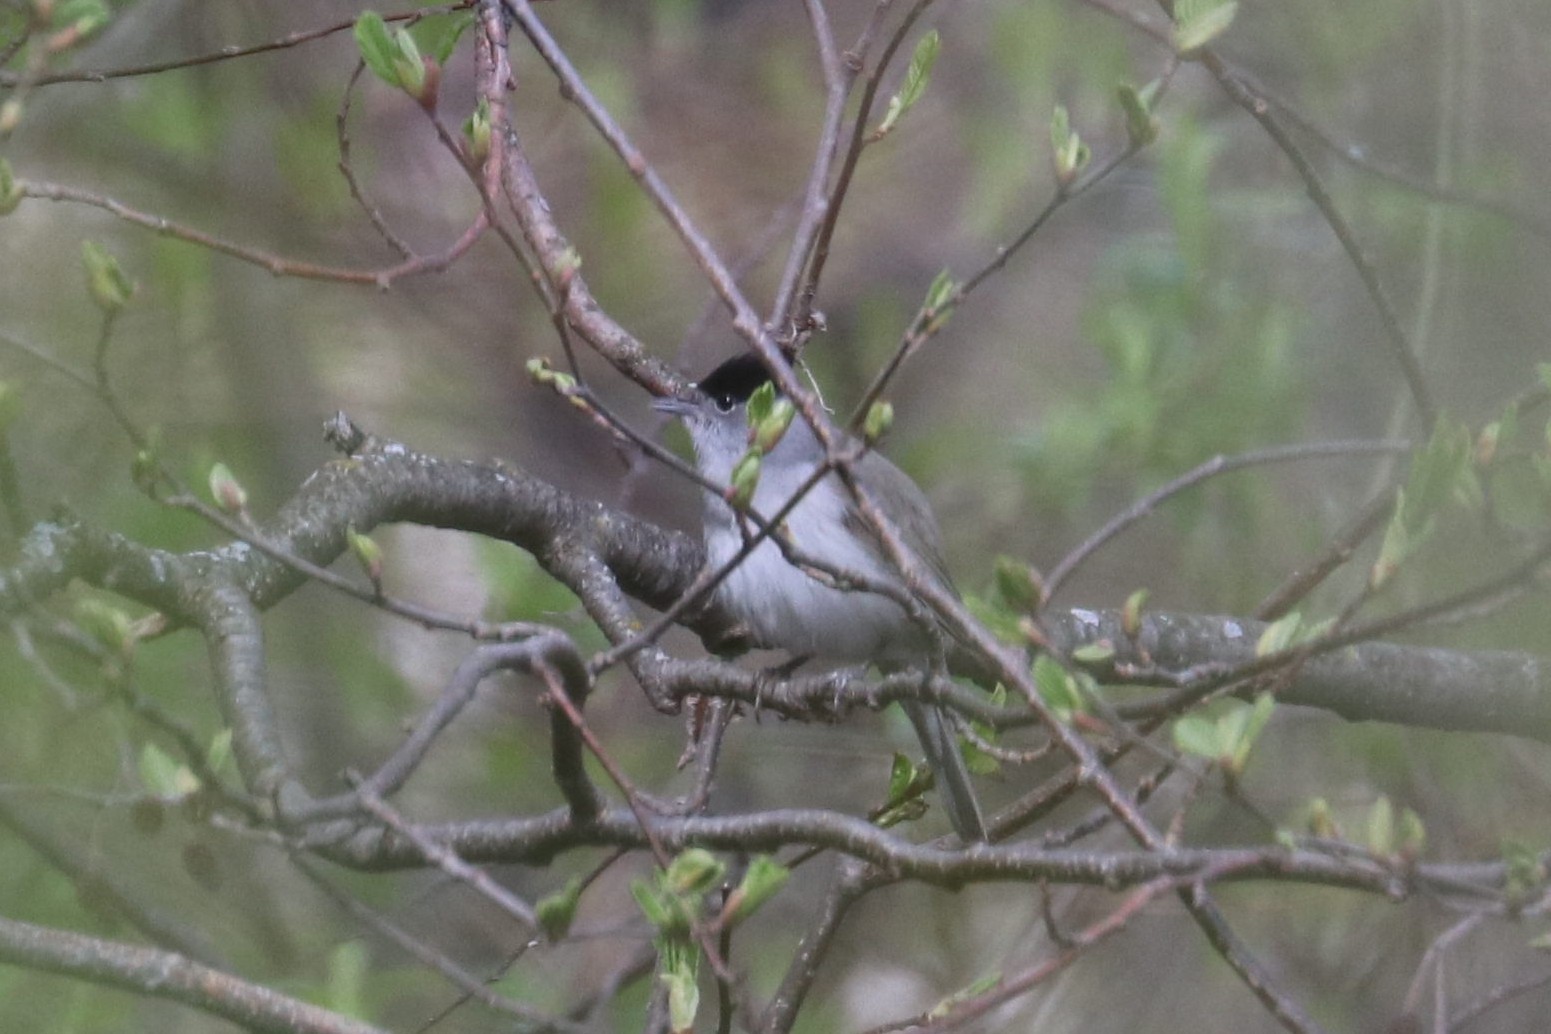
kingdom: Animalia
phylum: Chordata
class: Aves
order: Passeriformes
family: Sylviidae
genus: Sylvia
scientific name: Sylvia atricapilla
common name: Eurasian blackcap
